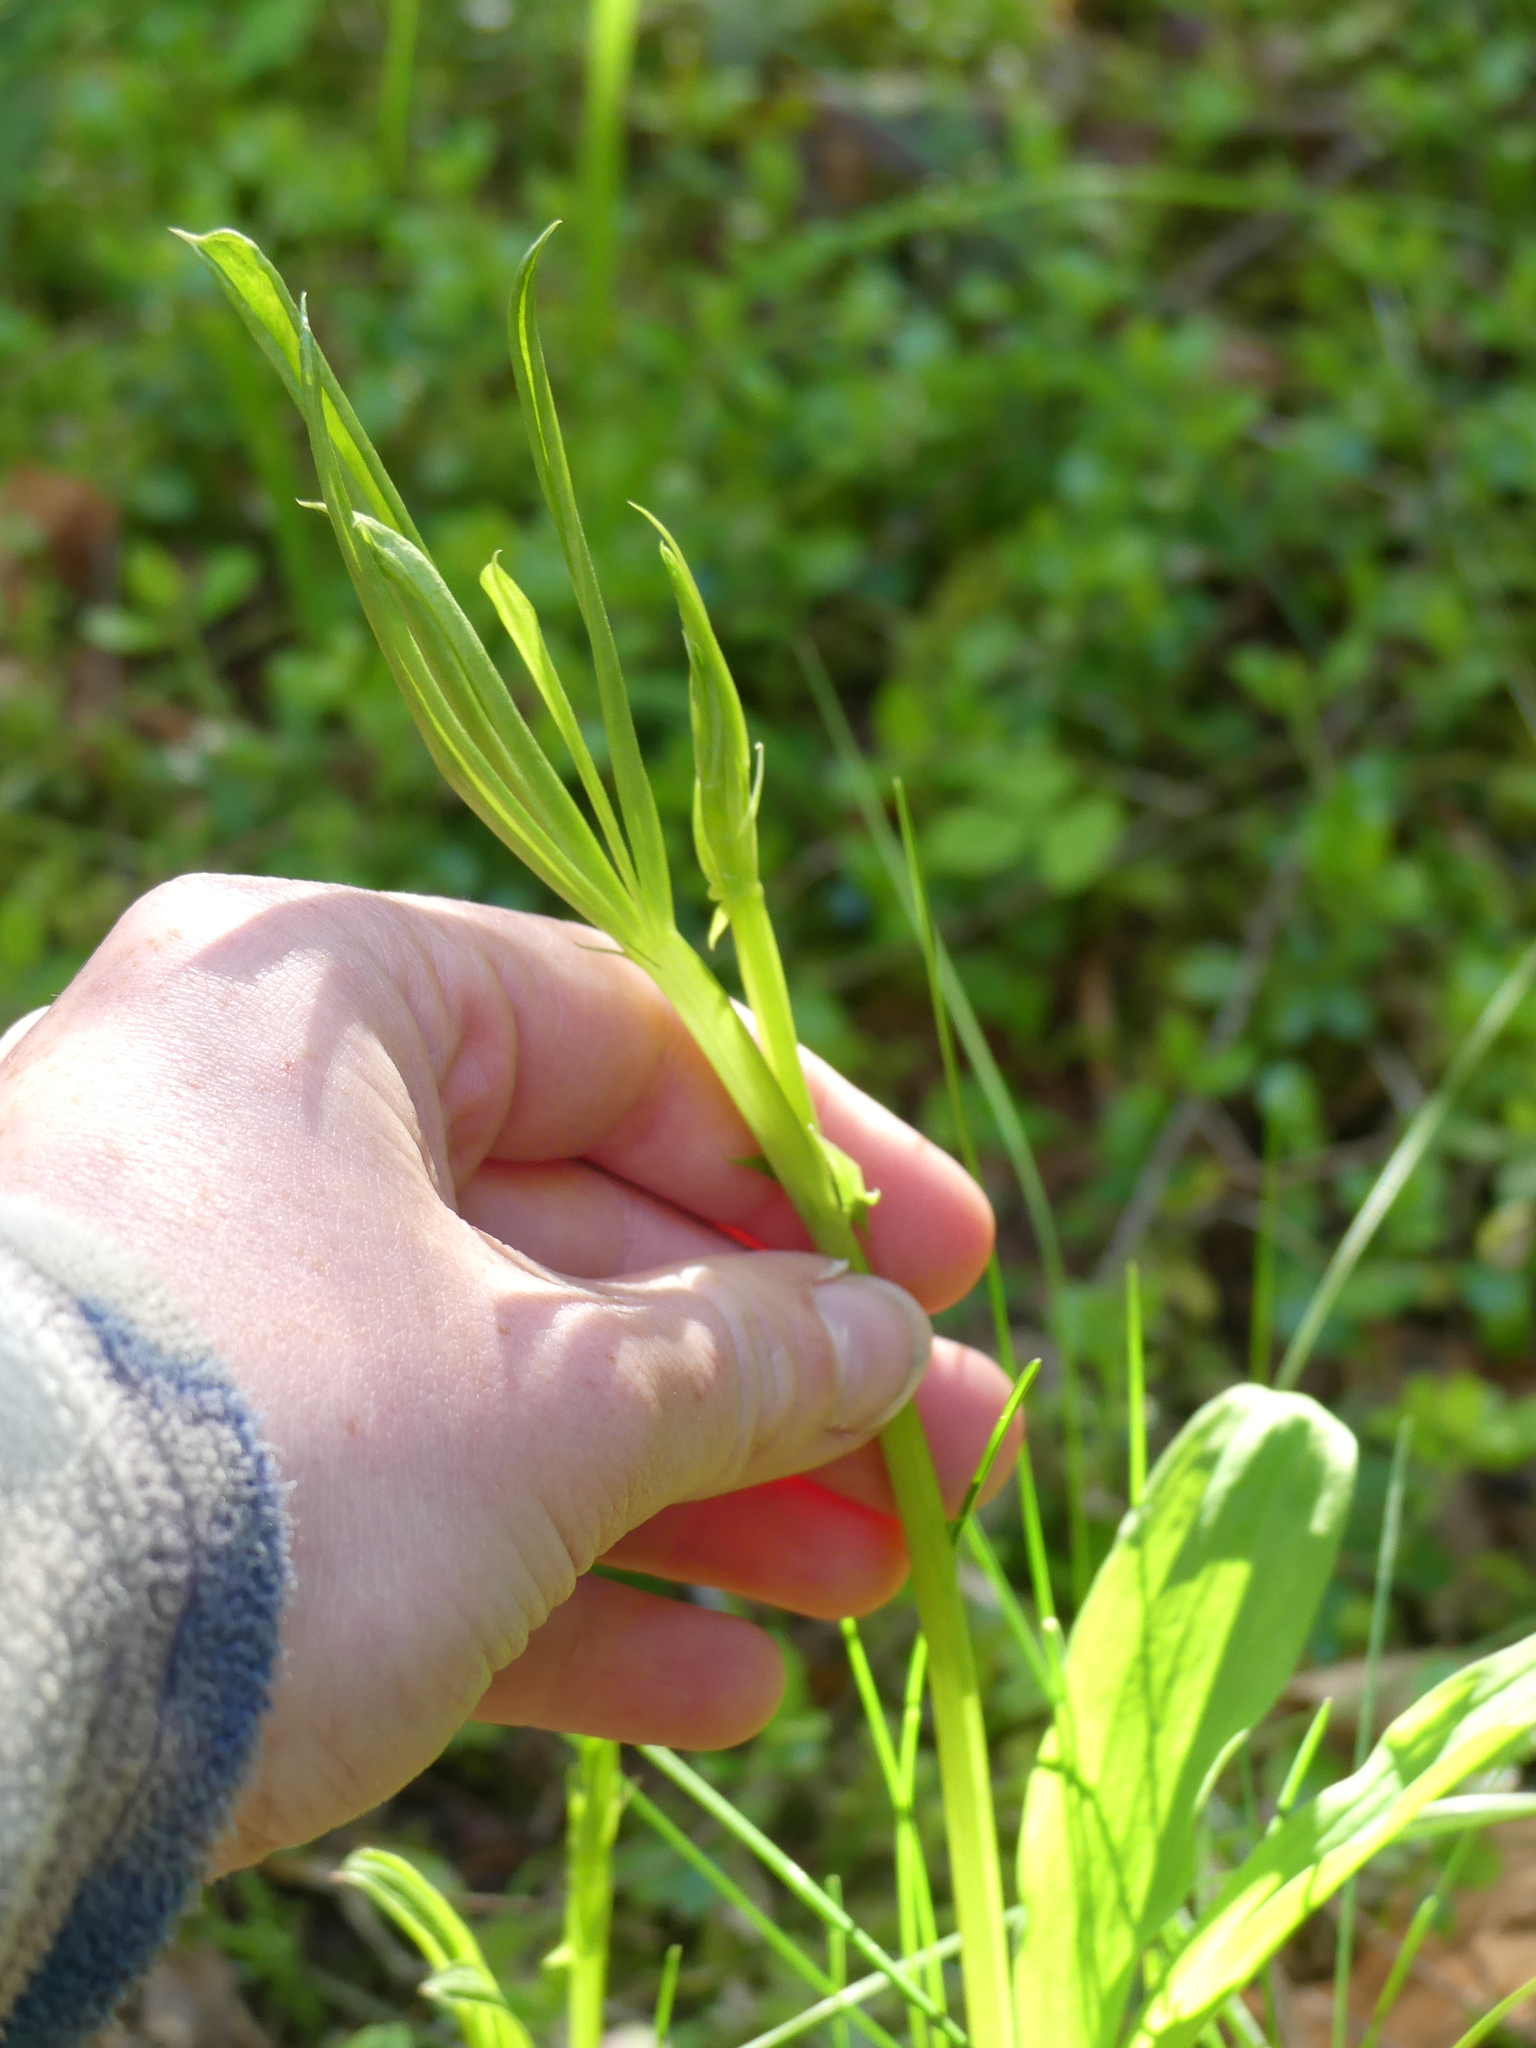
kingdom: Plantae
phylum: Tracheophyta
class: Magnoliopsida
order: Fabales
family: Fabaceae
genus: Lathyrus
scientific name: Lathyrus sylvestris
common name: Flat pea
